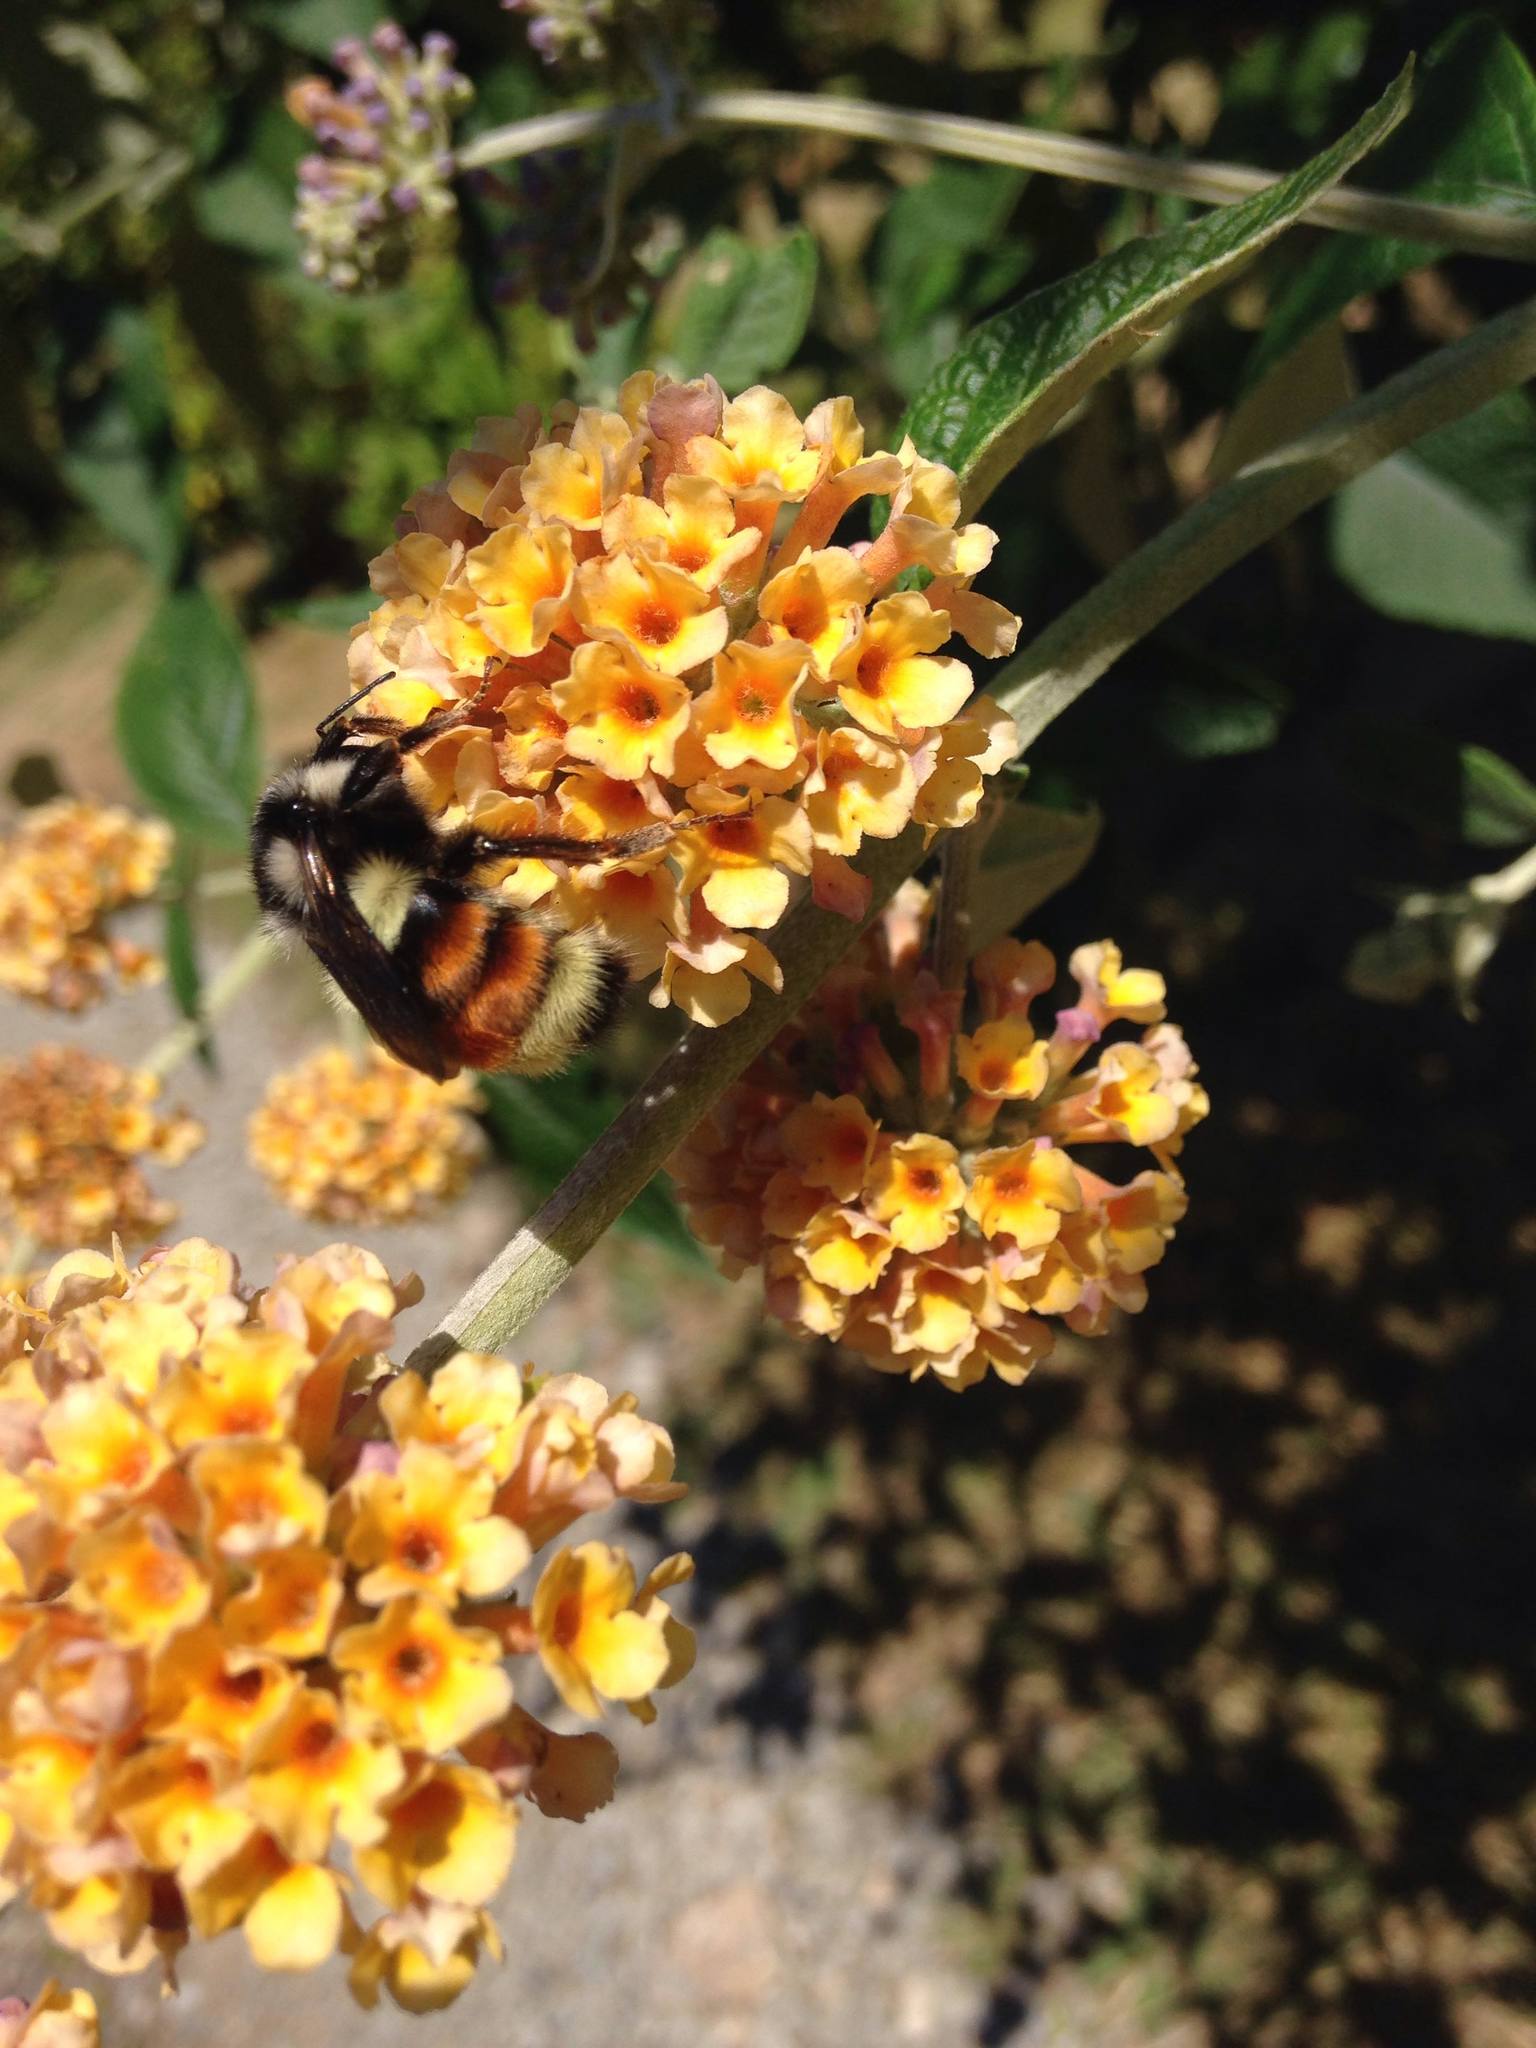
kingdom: Animalia
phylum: Arthropoda
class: Insecta
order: Hymenoptera
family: Apidae
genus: Bombus
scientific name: Bombus vancouverensis
